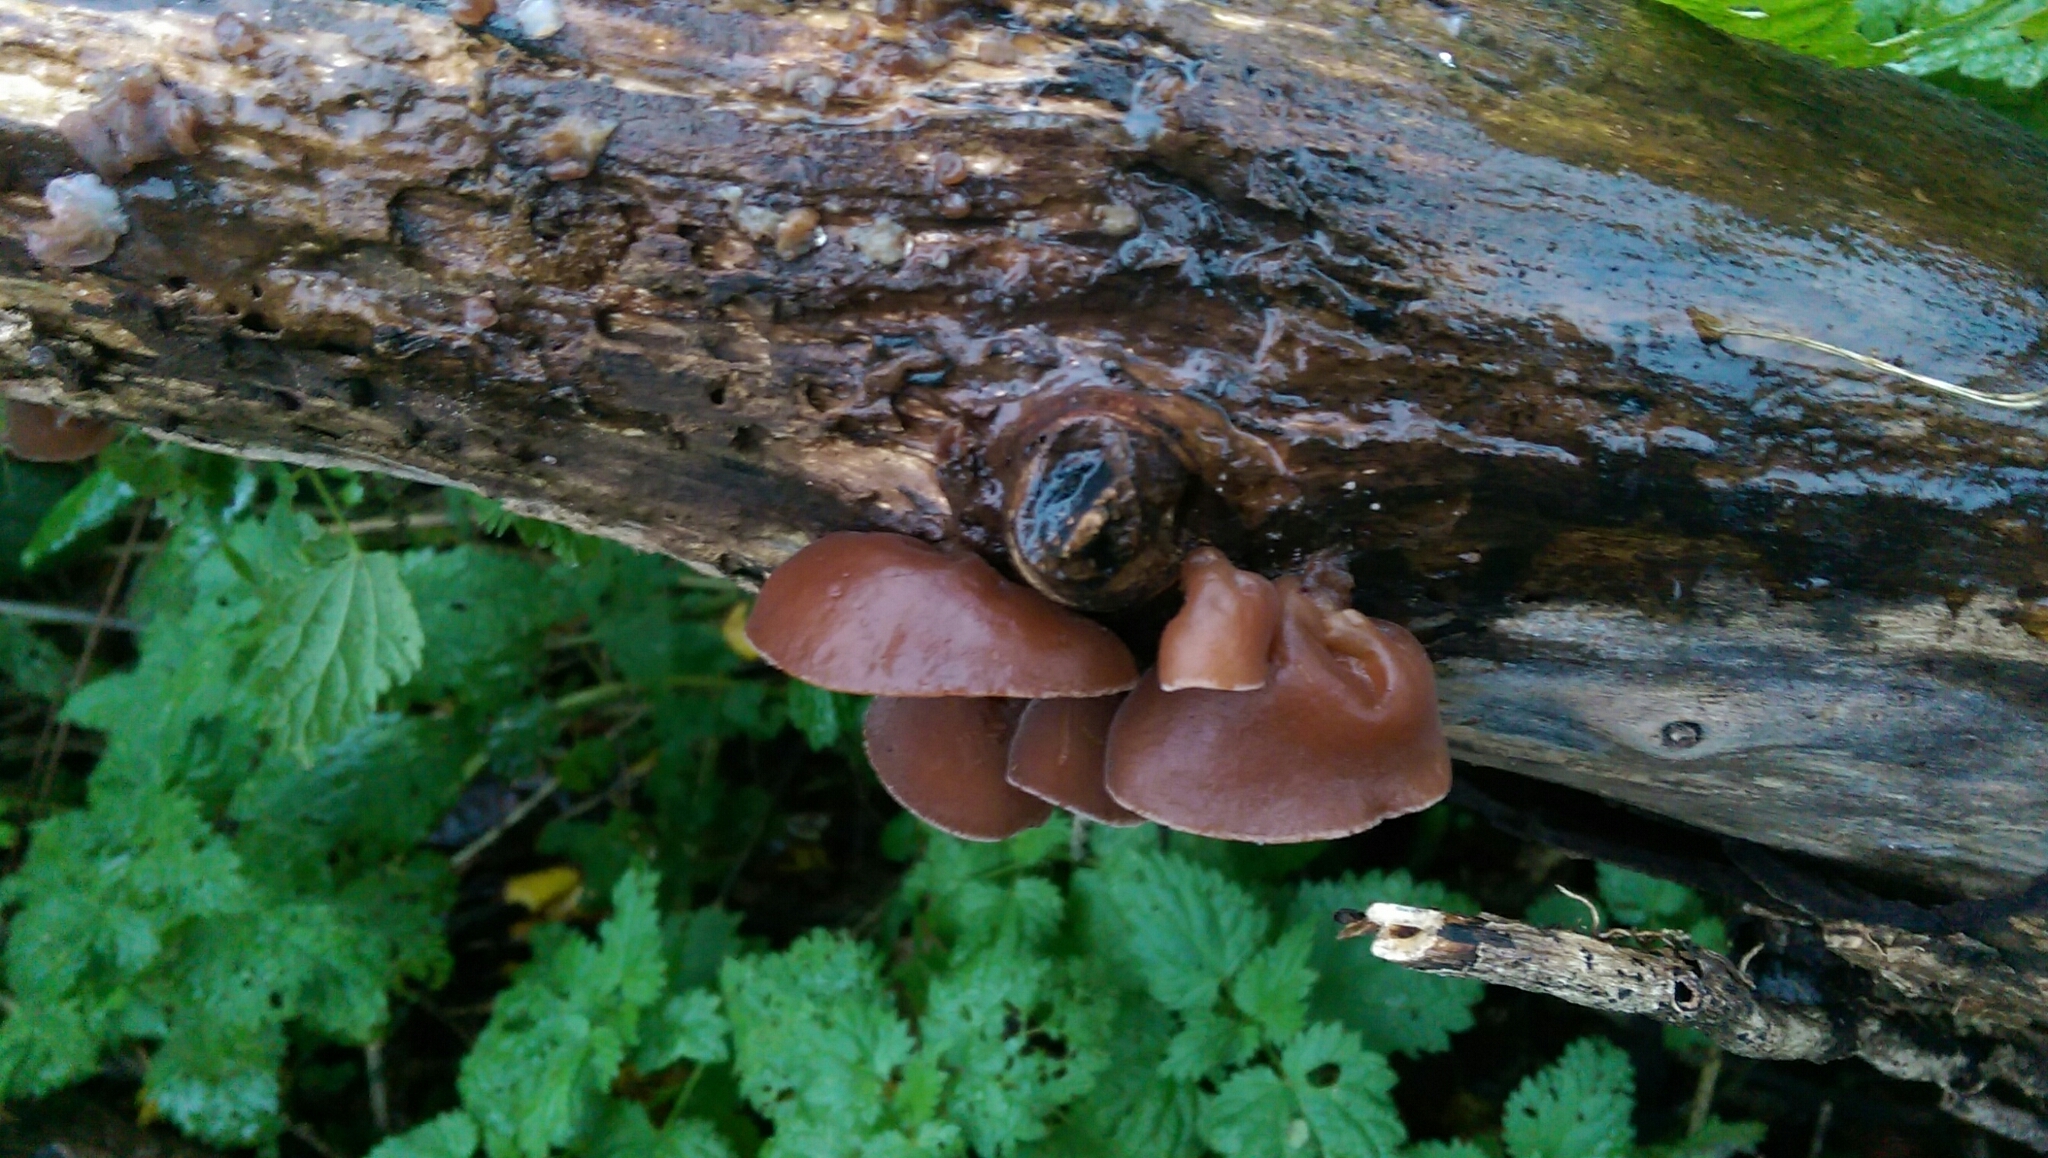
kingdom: Fungi
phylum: Basidiomycota
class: Agaricomycetes
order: Auriculariales
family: Auriculariaceae
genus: Auricularia
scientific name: Auricularia auricula-judae
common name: Jelly ear
